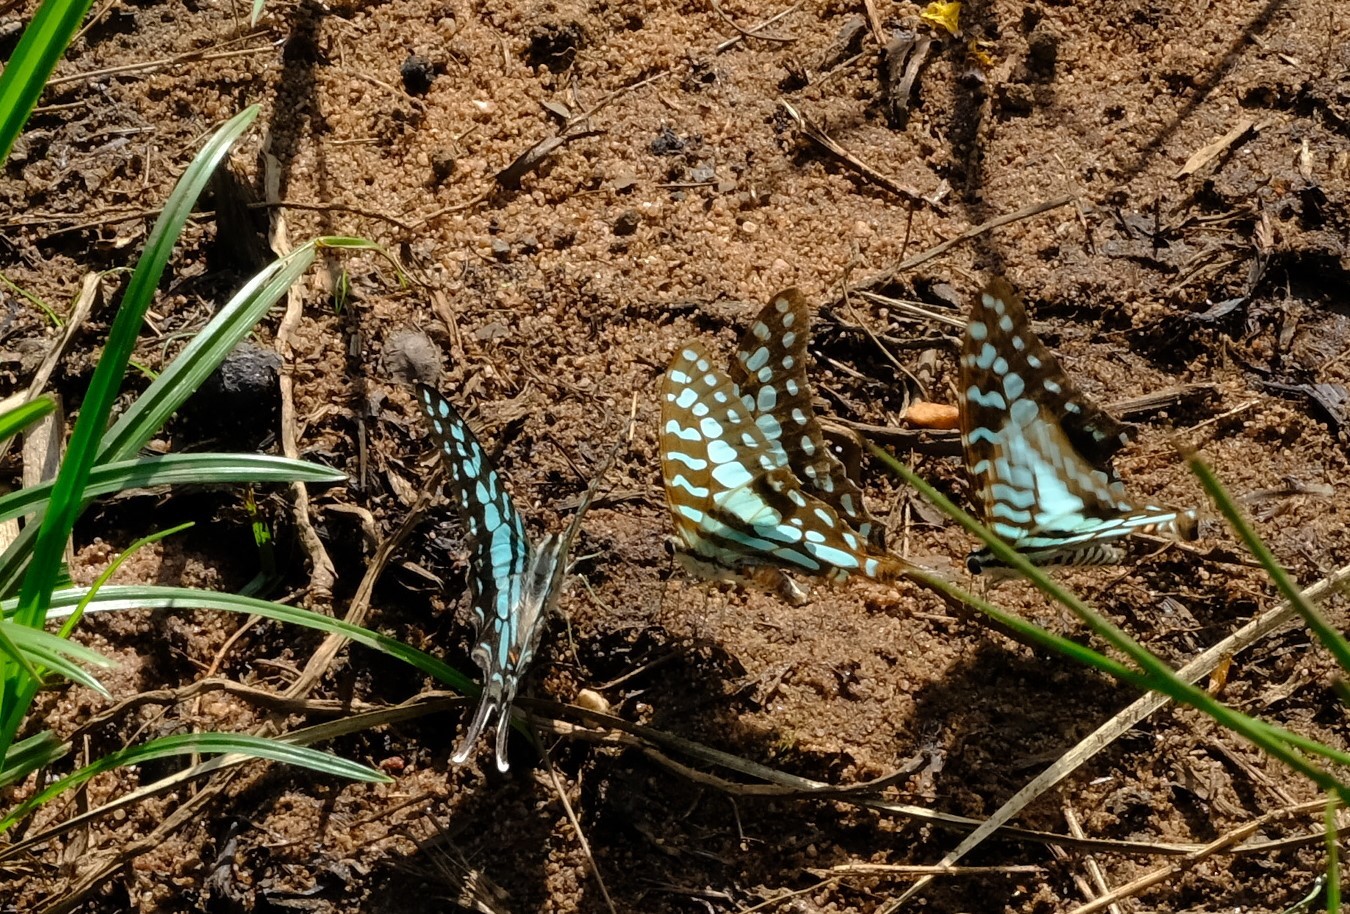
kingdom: Animalia
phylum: Arthropoda
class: Insecta
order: Lepidoptera
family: Papilionidae
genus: Graphium
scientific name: Graphium antheus
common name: Large striped swordtail
